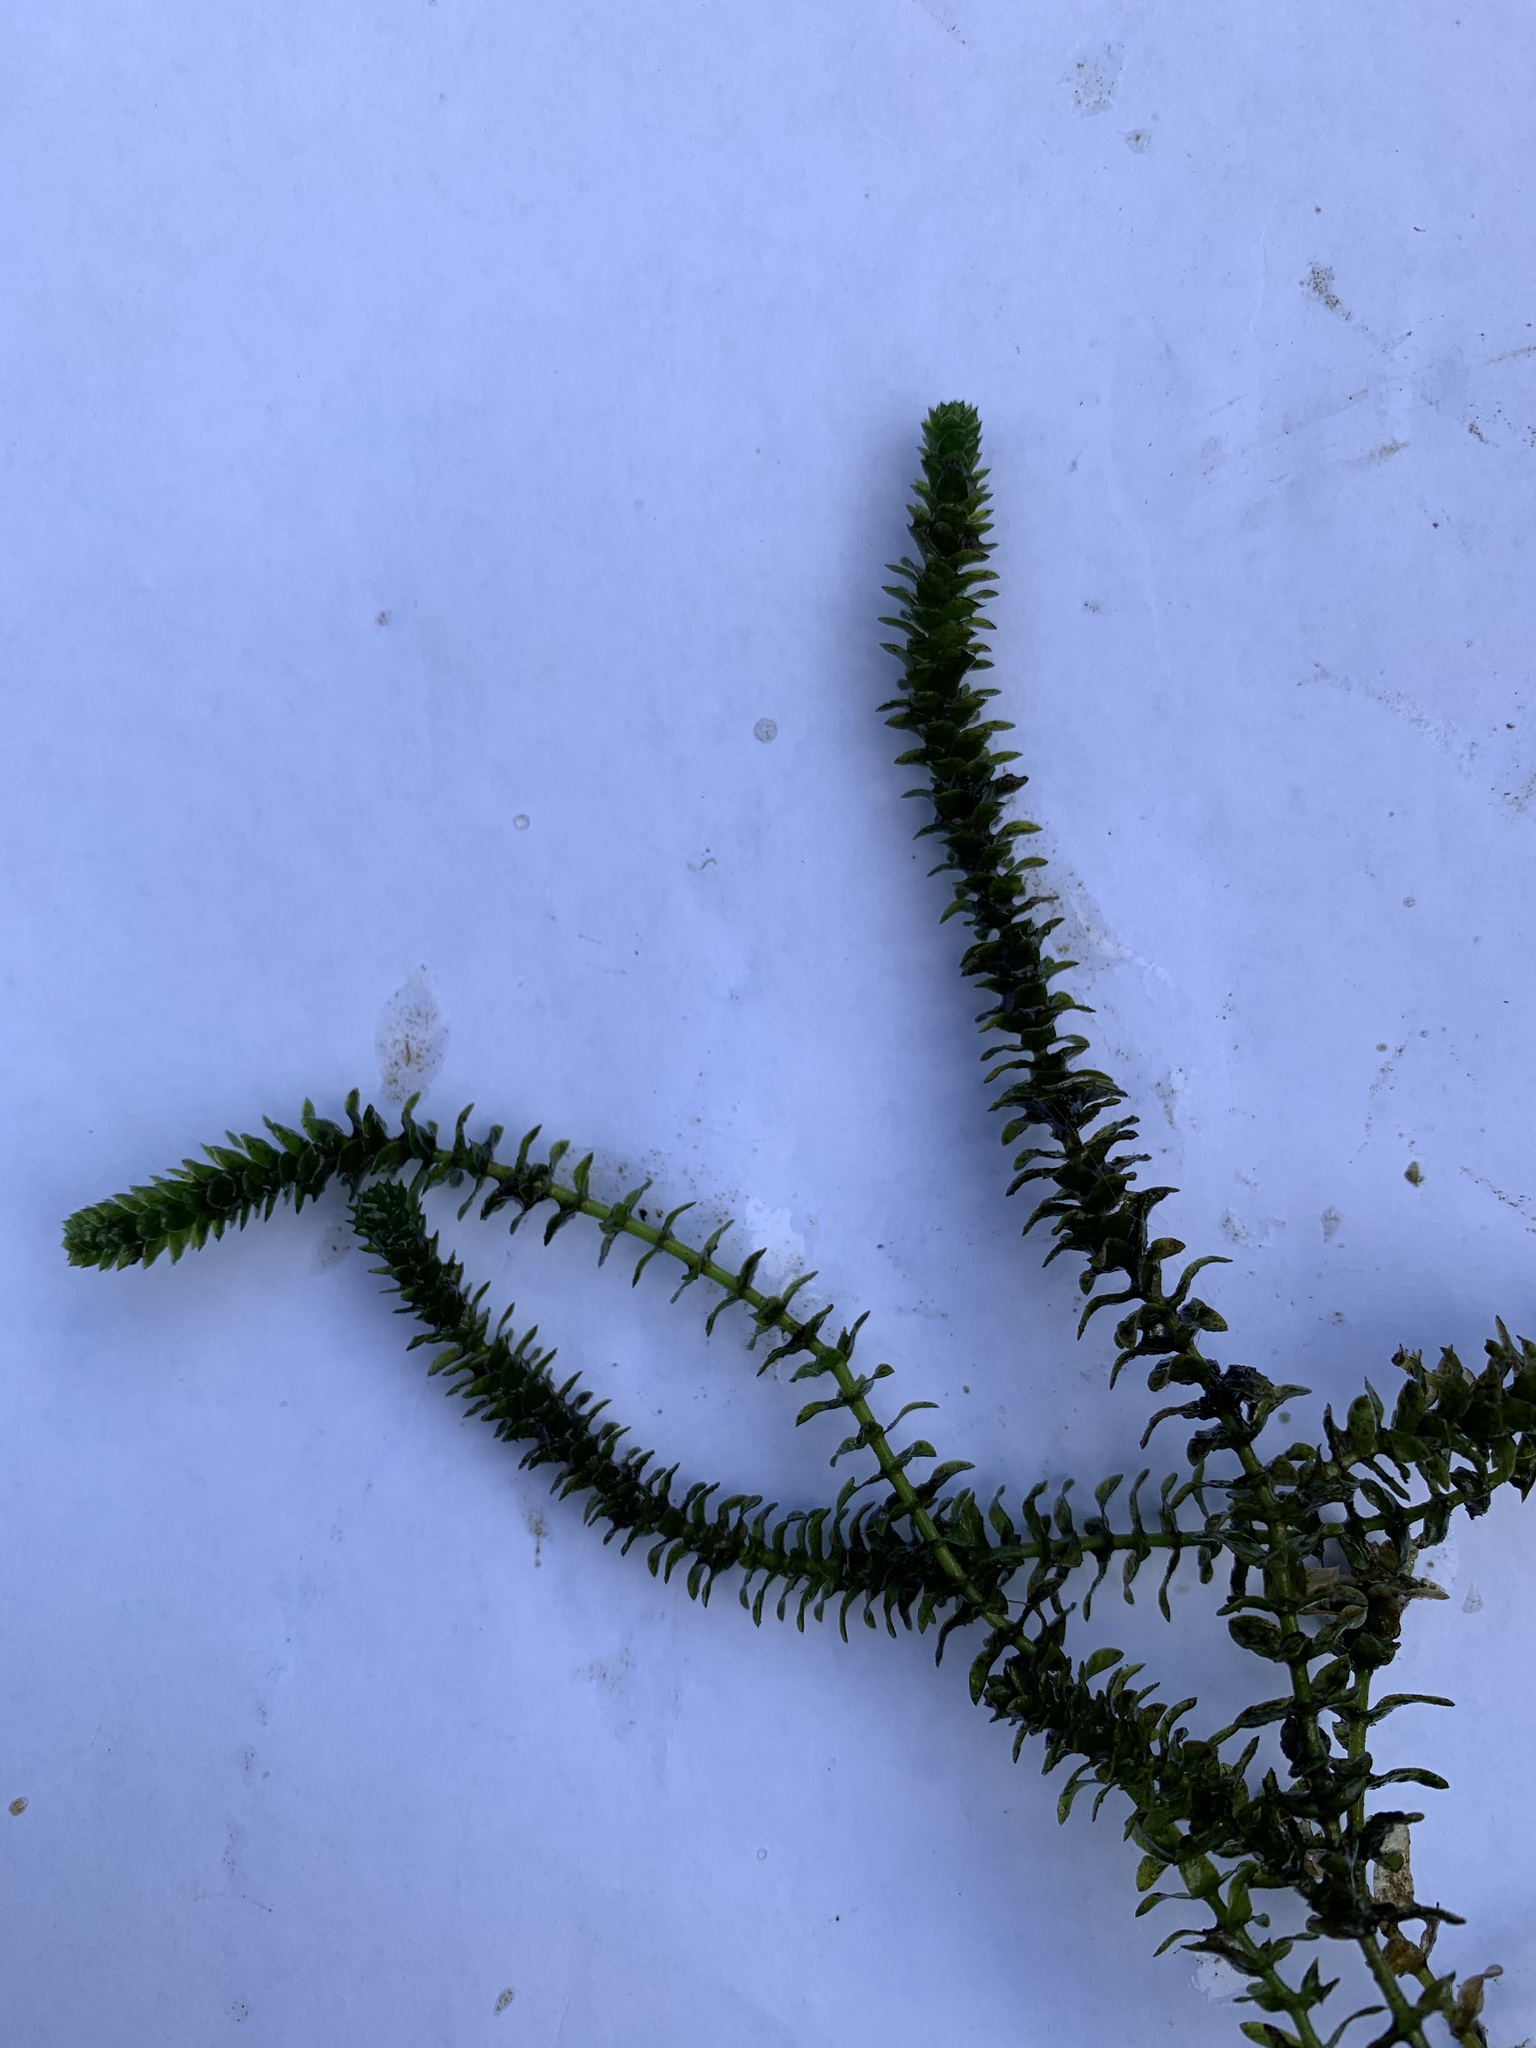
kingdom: Plantae
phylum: Tracheophyta
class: Liliopsida
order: Alismatales
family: Hydrocharitaceae
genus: Elodea
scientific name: Elodea canadensis
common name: Canadian waterweed
